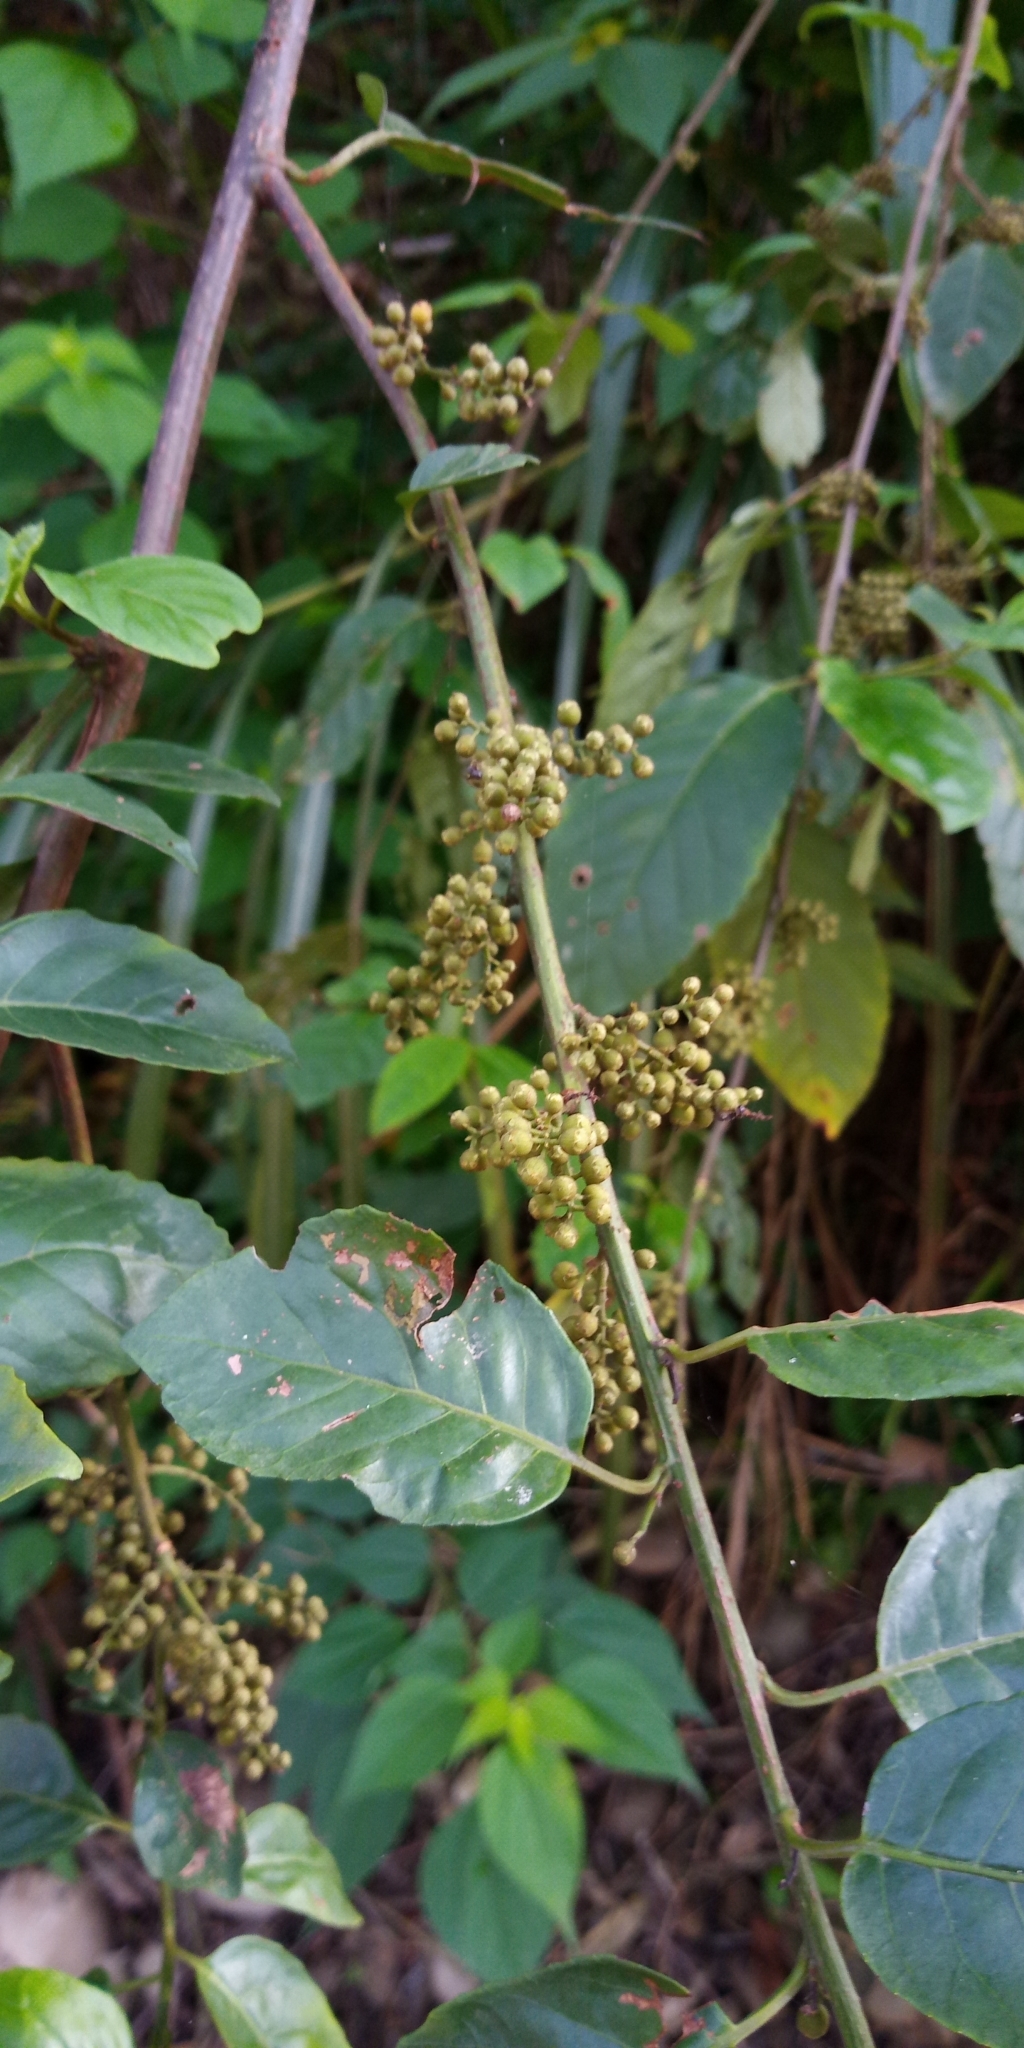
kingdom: Plantae
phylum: Tracheophyta
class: Magnoliopsida
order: Ericales
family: Primulaceae
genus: Maesa
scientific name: Maesa perlaria
